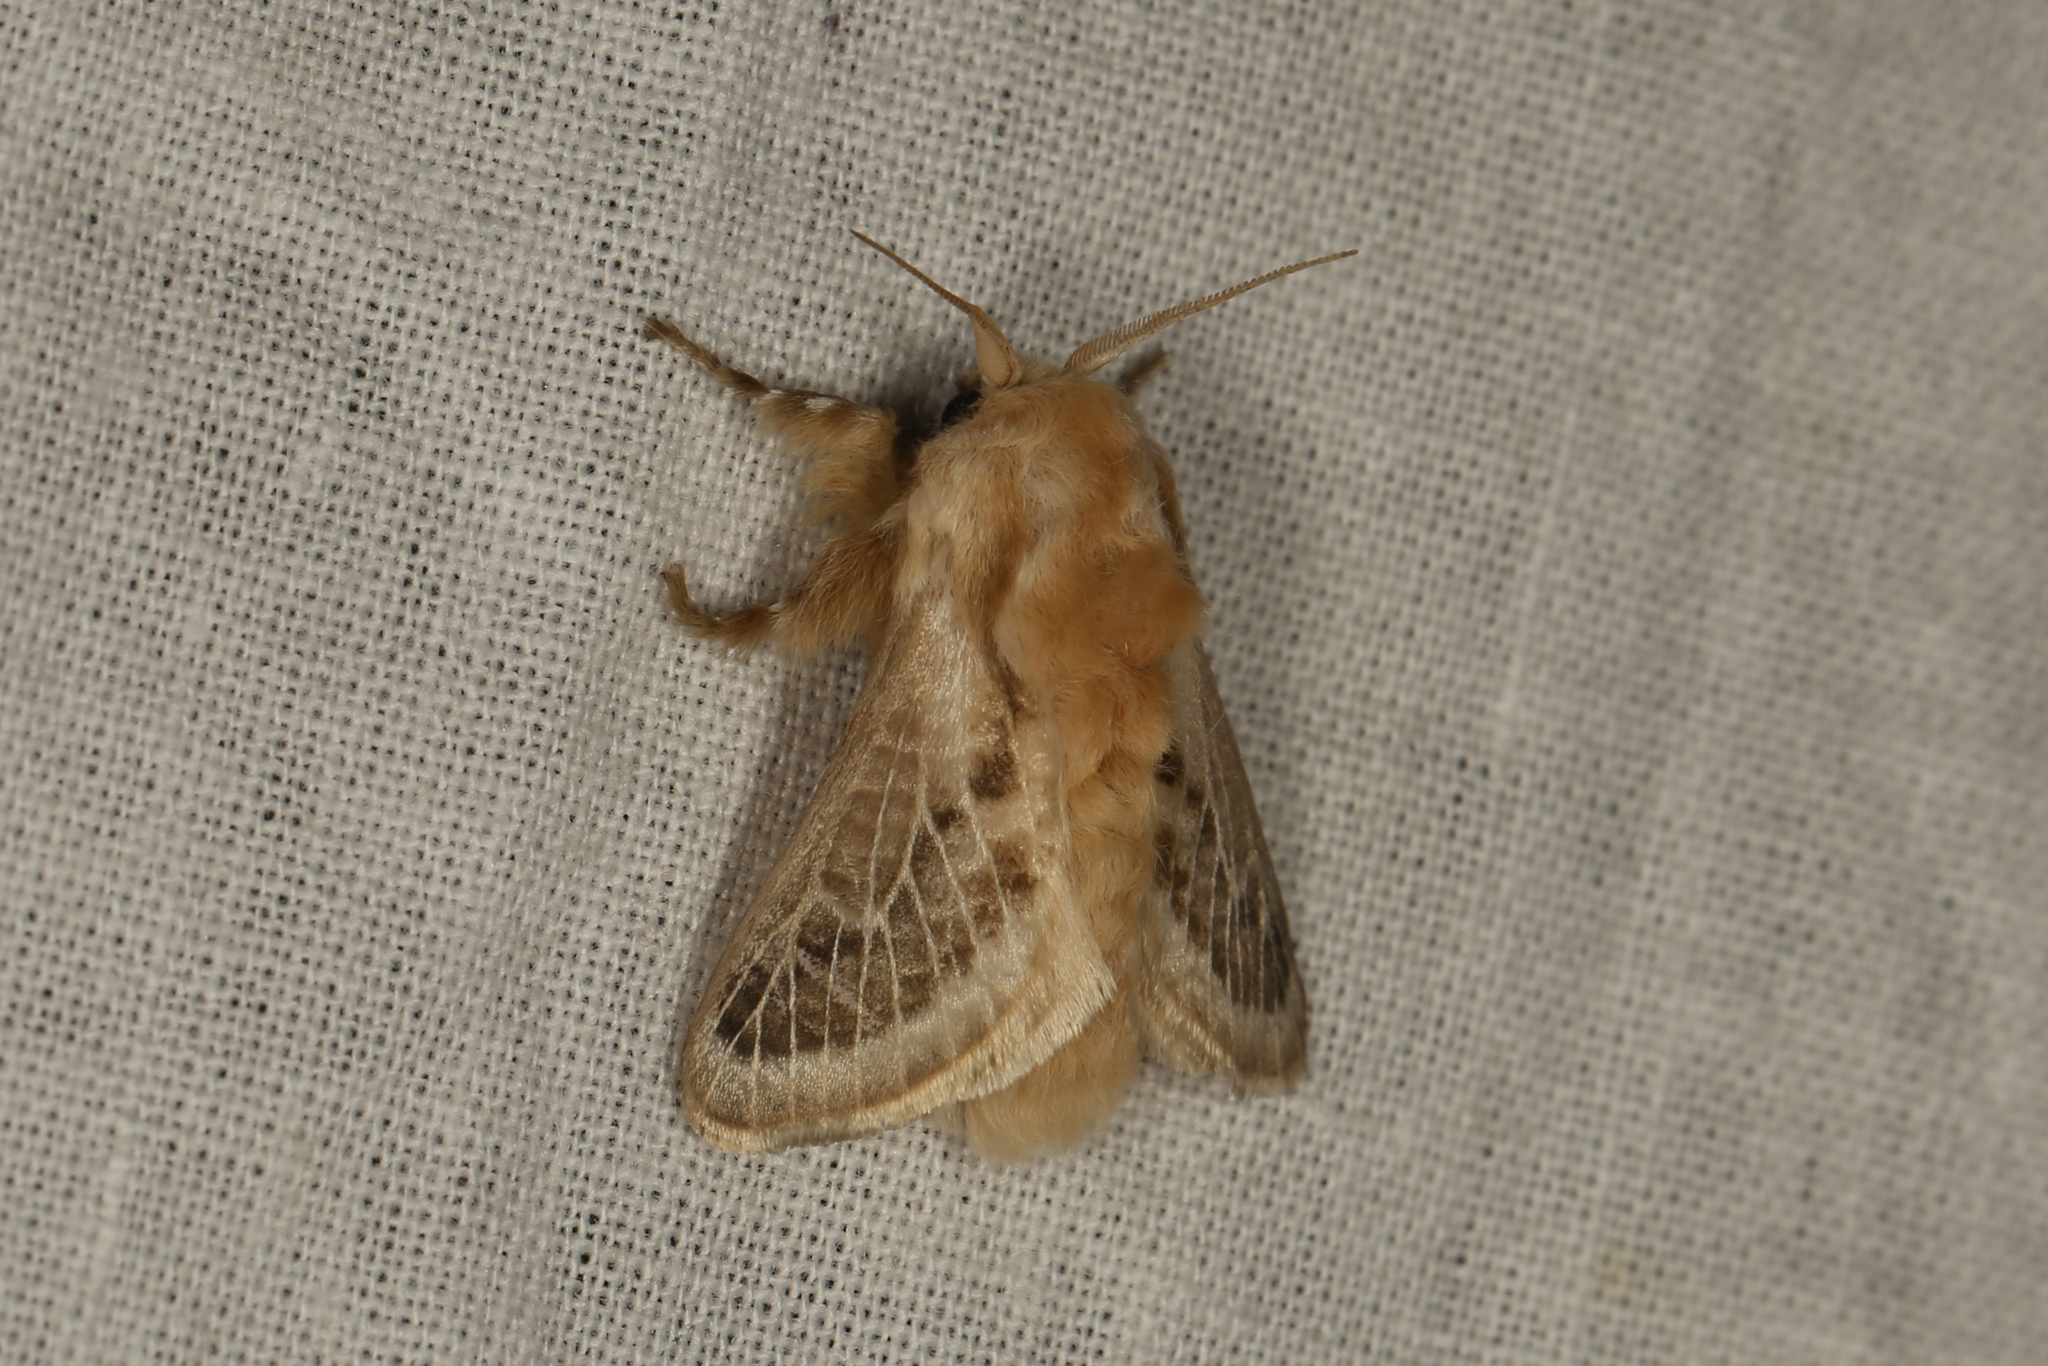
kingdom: Animalia
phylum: Arthropoda
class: Insecta
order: Lepidoptera
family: Limacodidae
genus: Doratifera
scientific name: Doratifera pinguis
